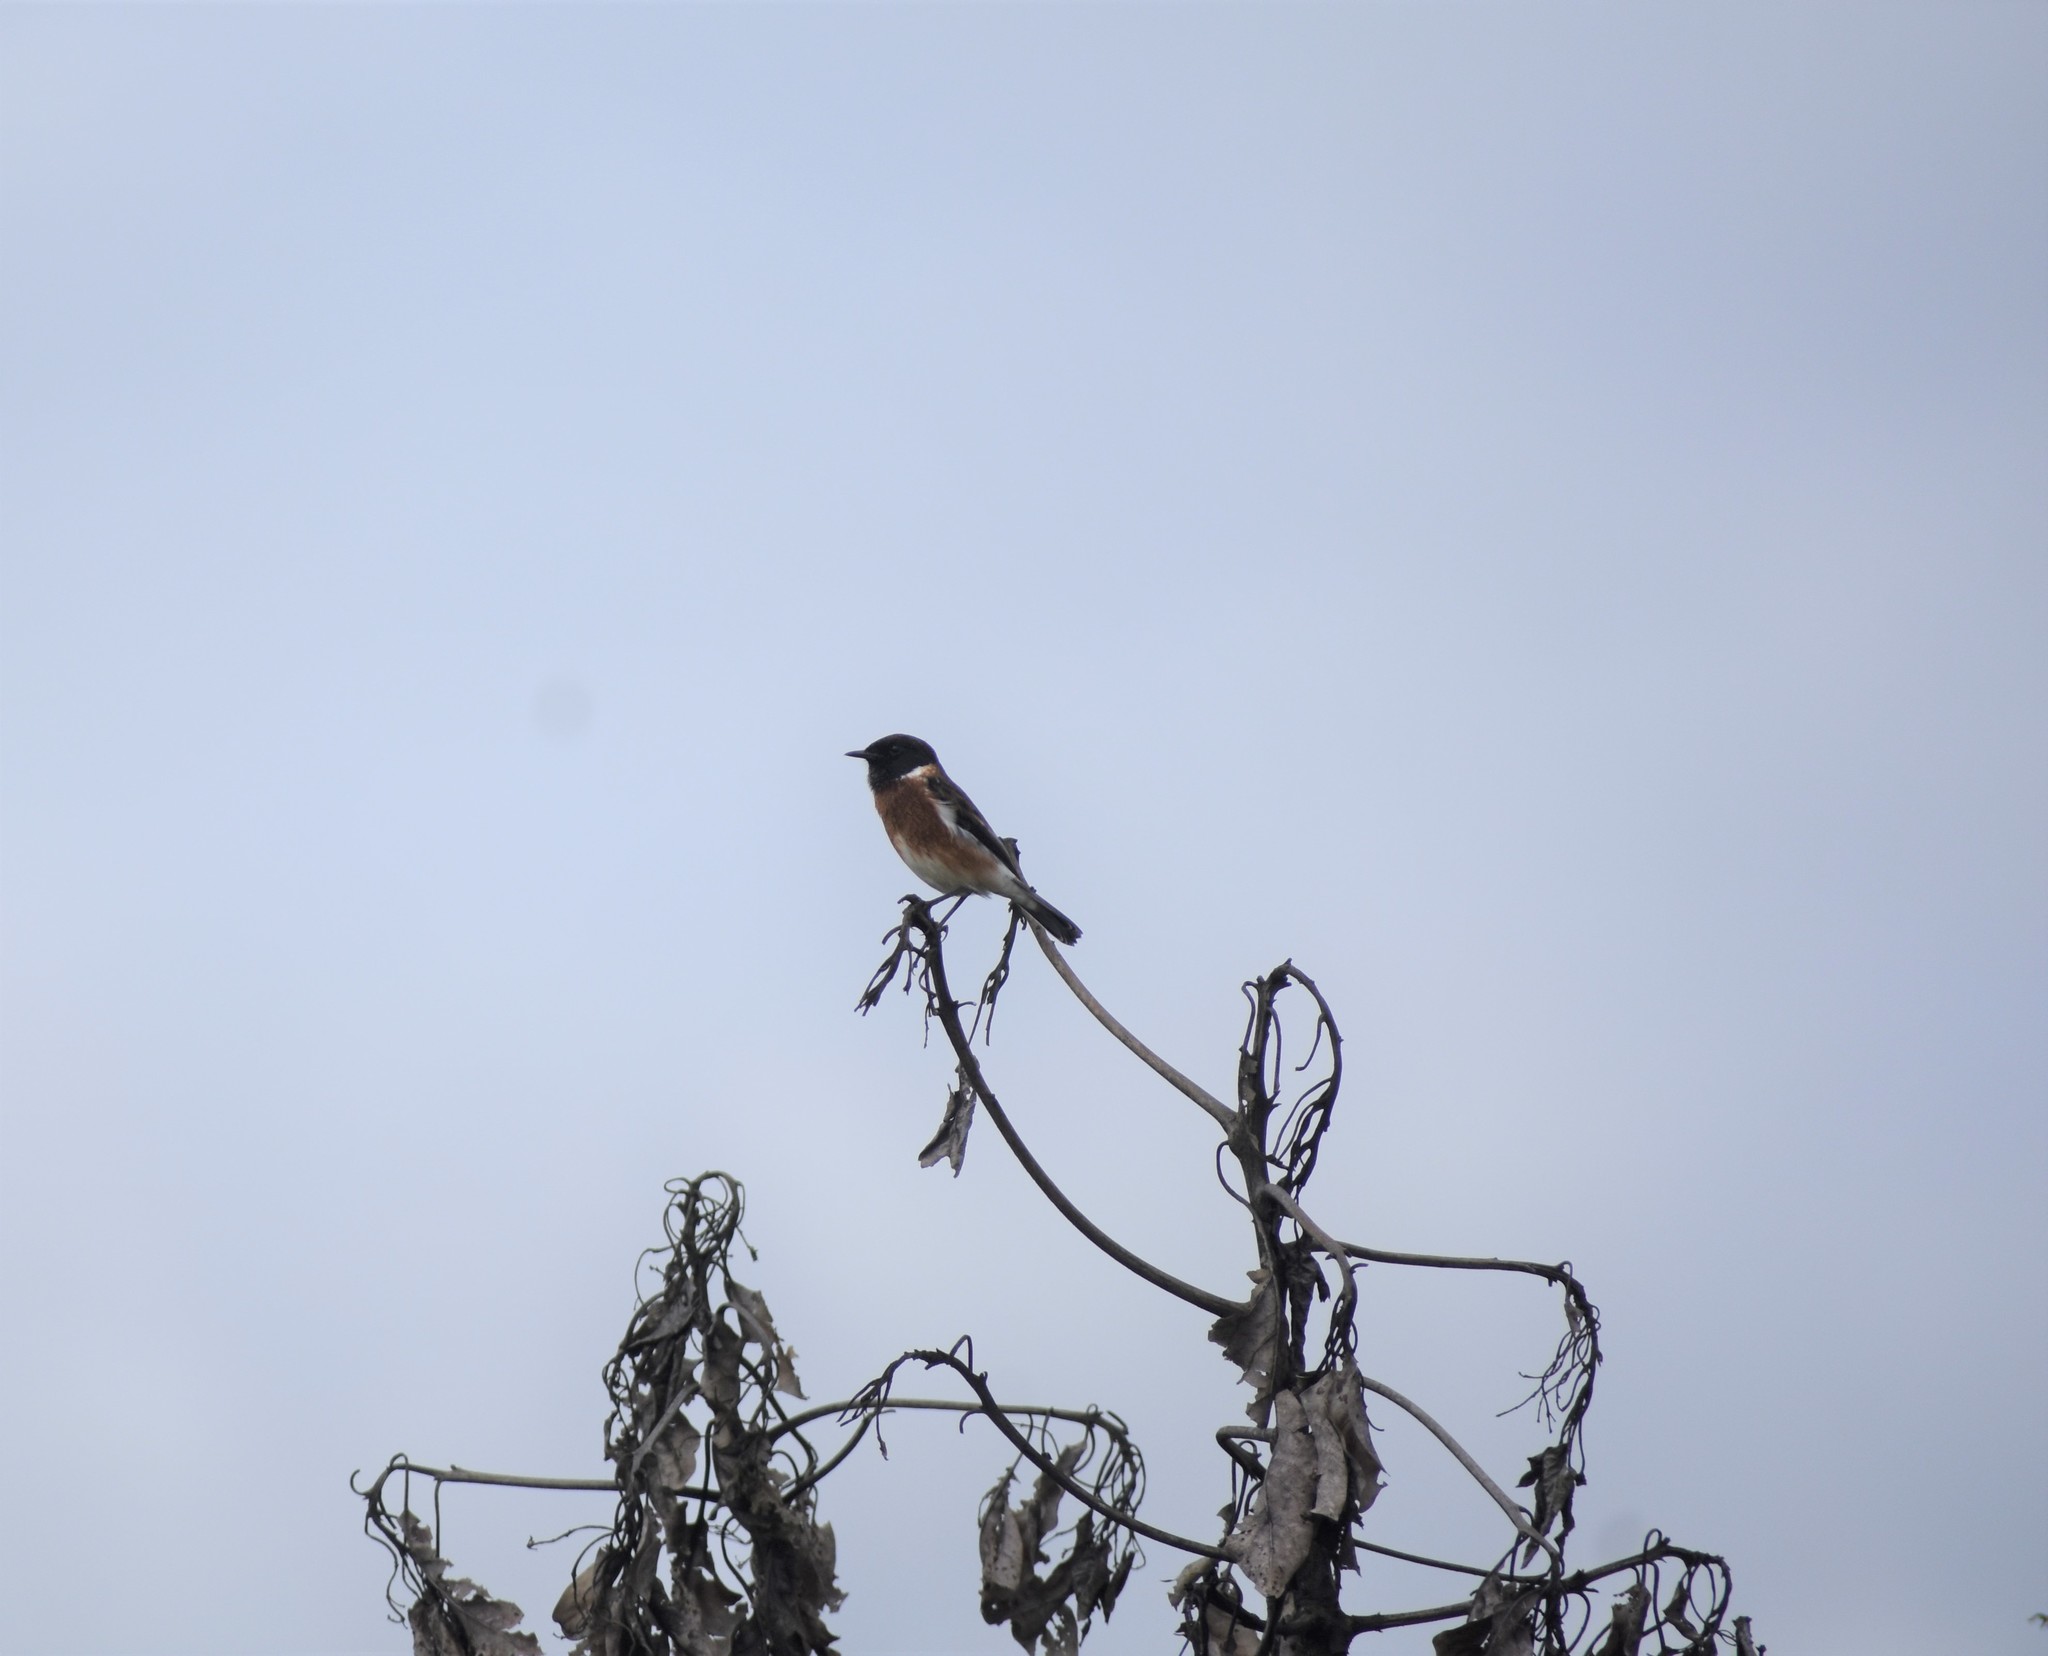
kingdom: Animalia
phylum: Chordata
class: Aves
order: Passeriformes
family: Muscicapidae
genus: Saxicola
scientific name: Saxicola torquatus
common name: African stonechat
